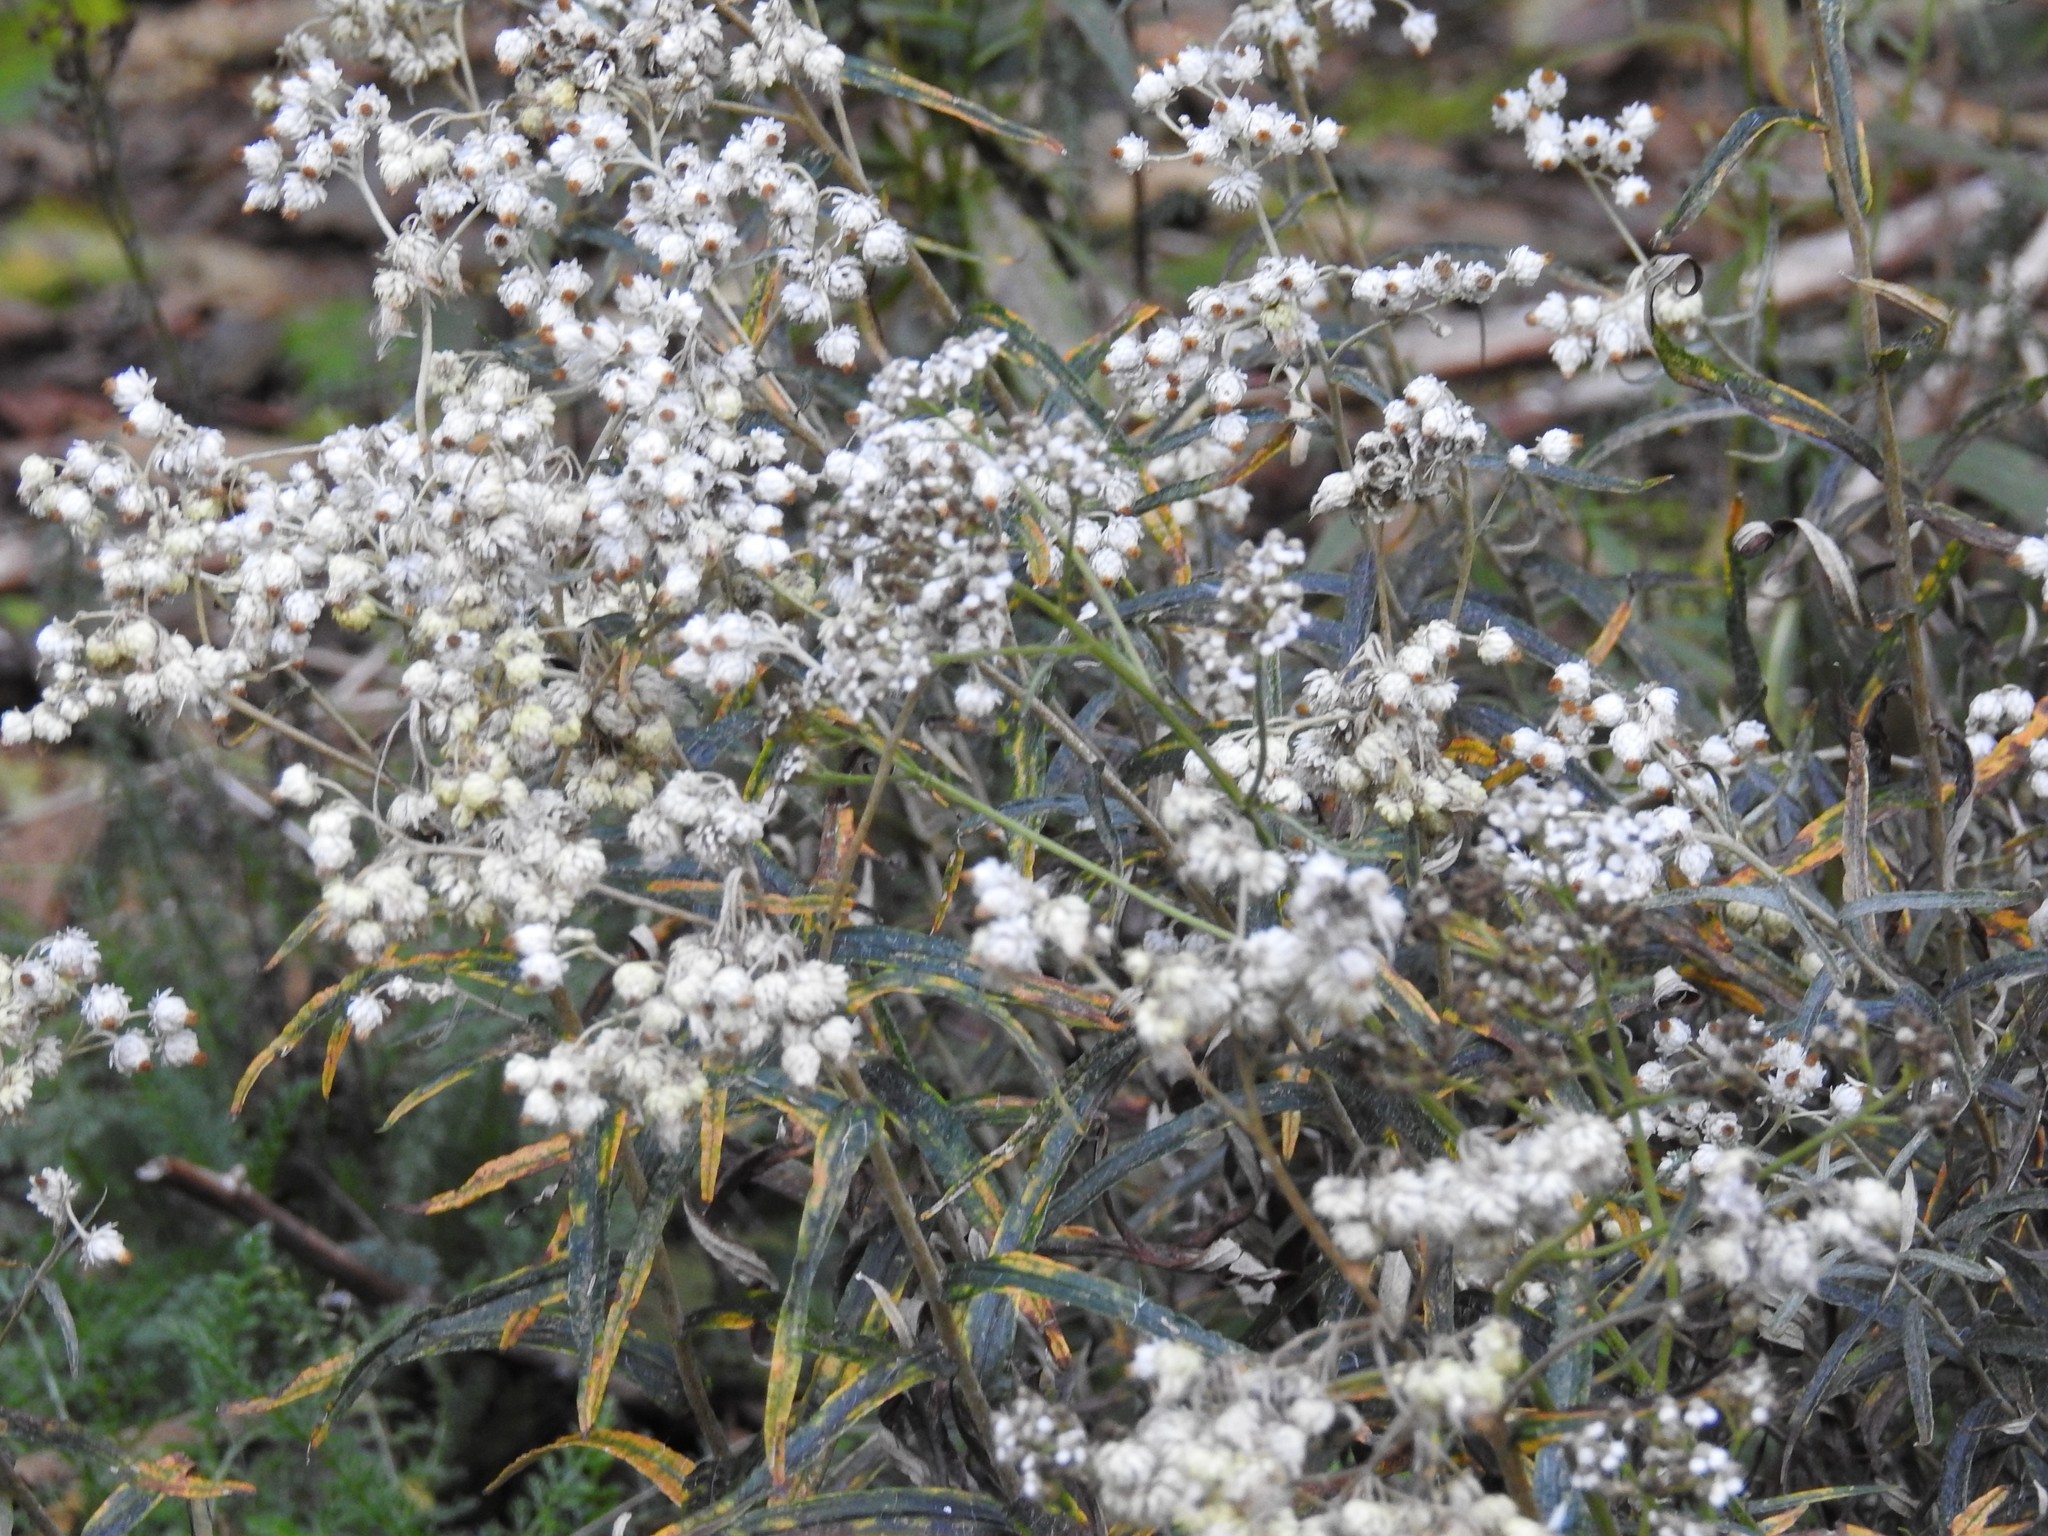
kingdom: Plantae
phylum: Tracheophyta
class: Magnoliopsida
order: Asterales
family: Asteraceae
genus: Anaphalis
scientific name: Anaphalis margaritacea
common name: Pearly everlasting
